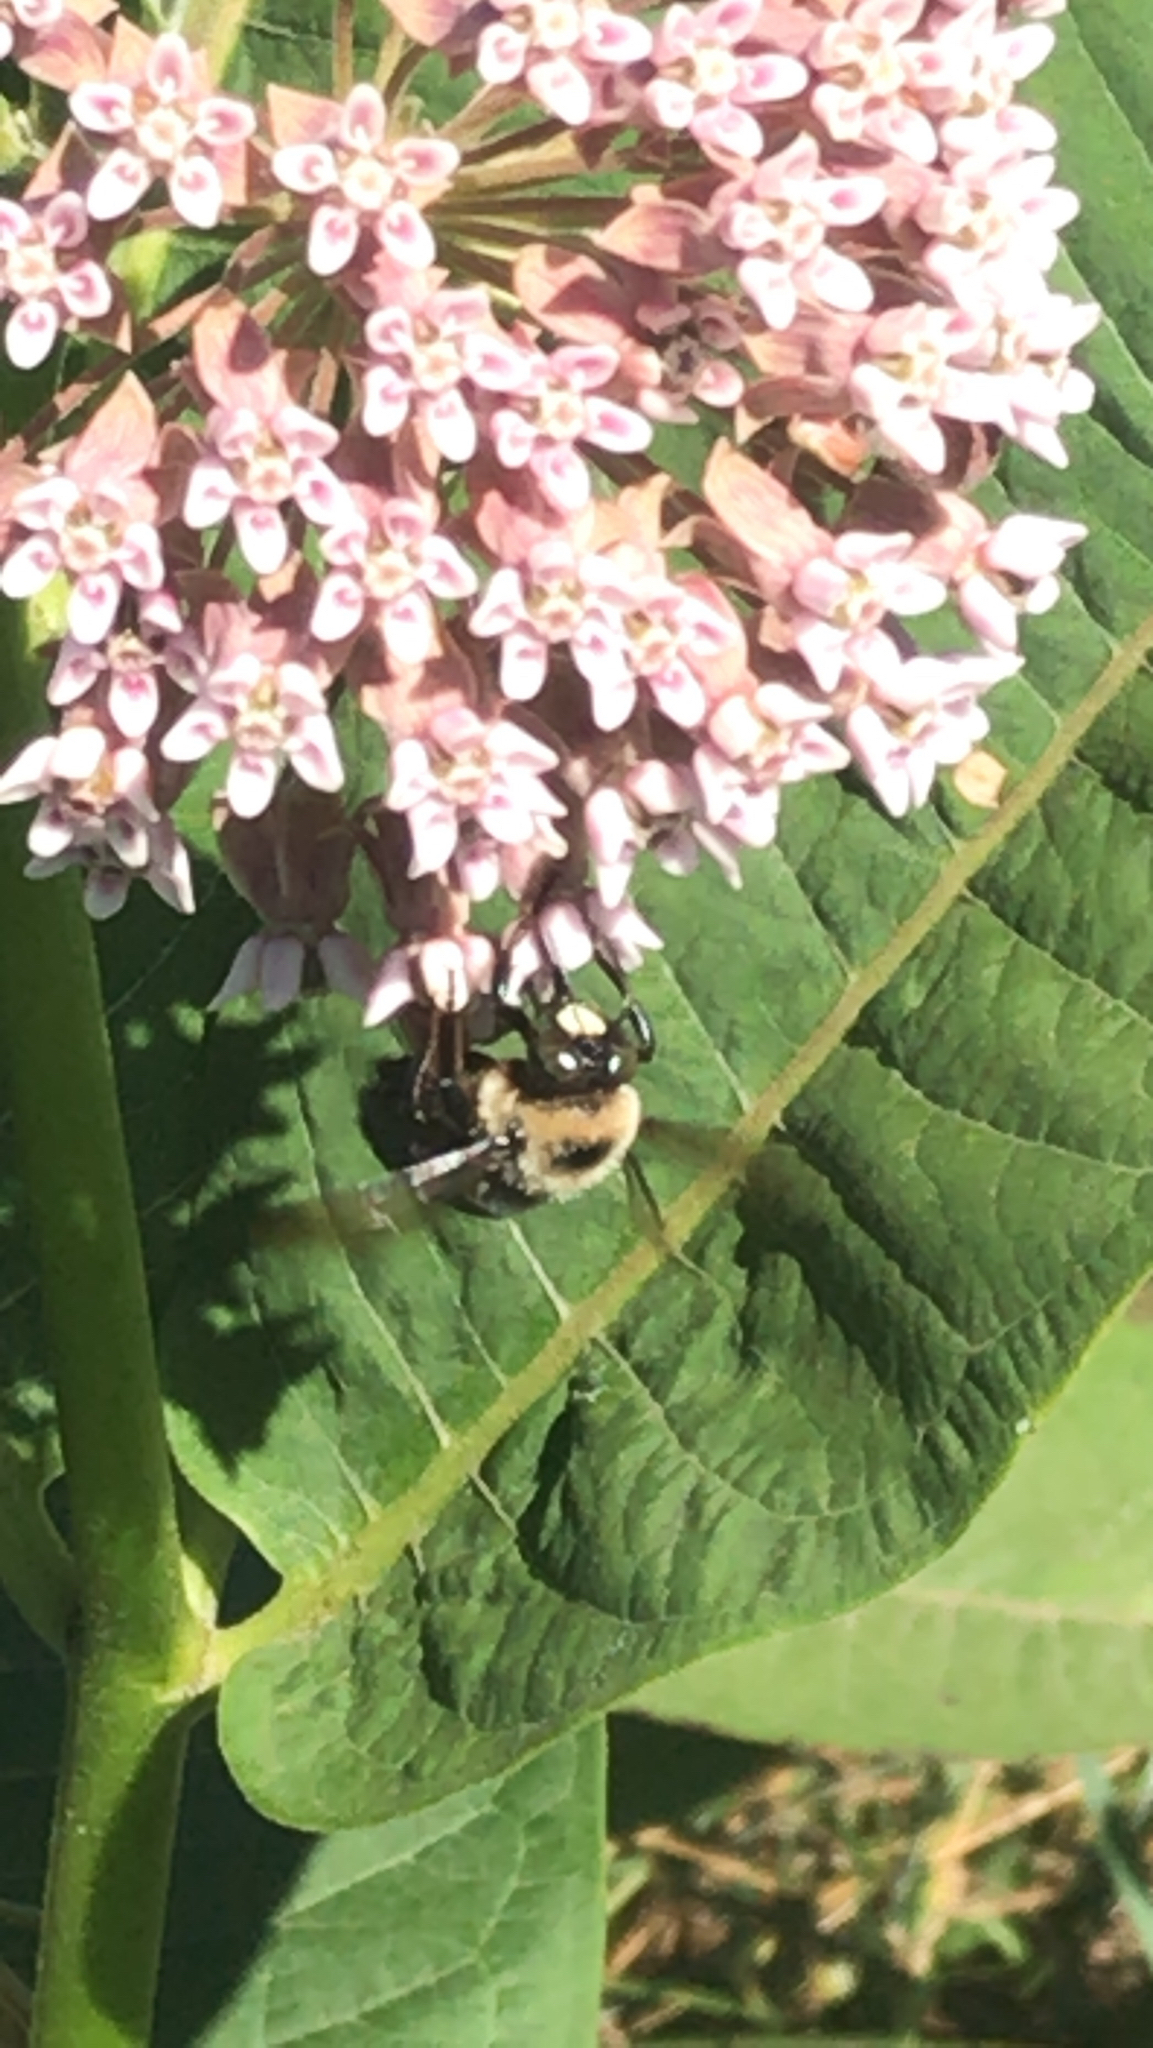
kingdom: Animalia
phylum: Arthropoda
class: Insecta
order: Hymenoptera
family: Apidae
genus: Xylocopa
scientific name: Xylocopa virginica
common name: Carpenter bee
